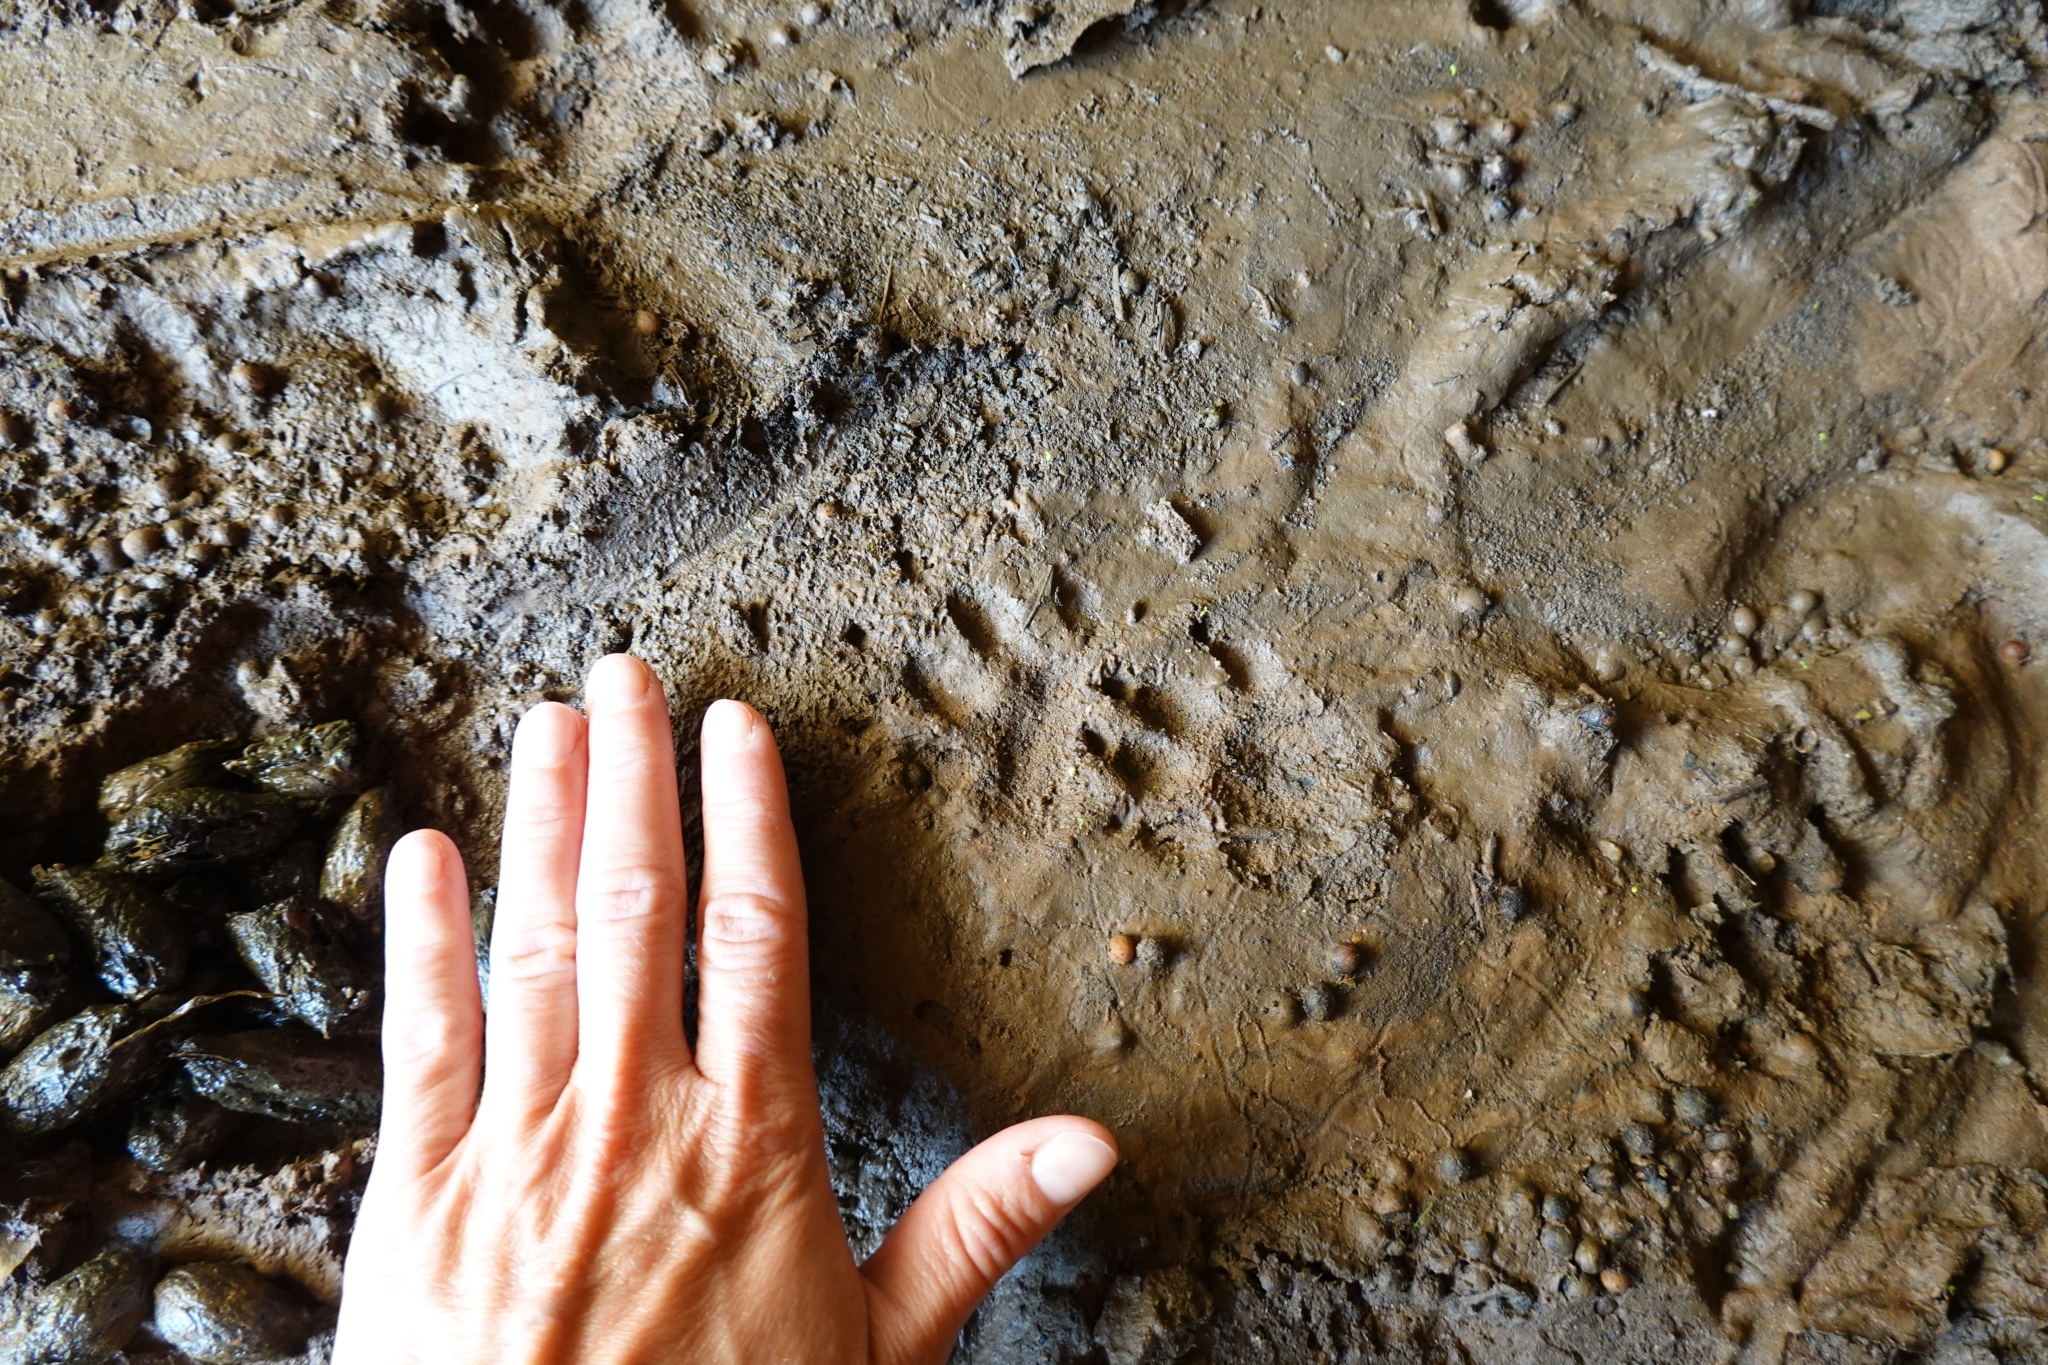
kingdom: Animalia
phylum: Chordata
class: Mammalia
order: Rodentia
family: Hystricidae
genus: Hystrix
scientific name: Hystrix africaeaustralis
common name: Cape porcupine
